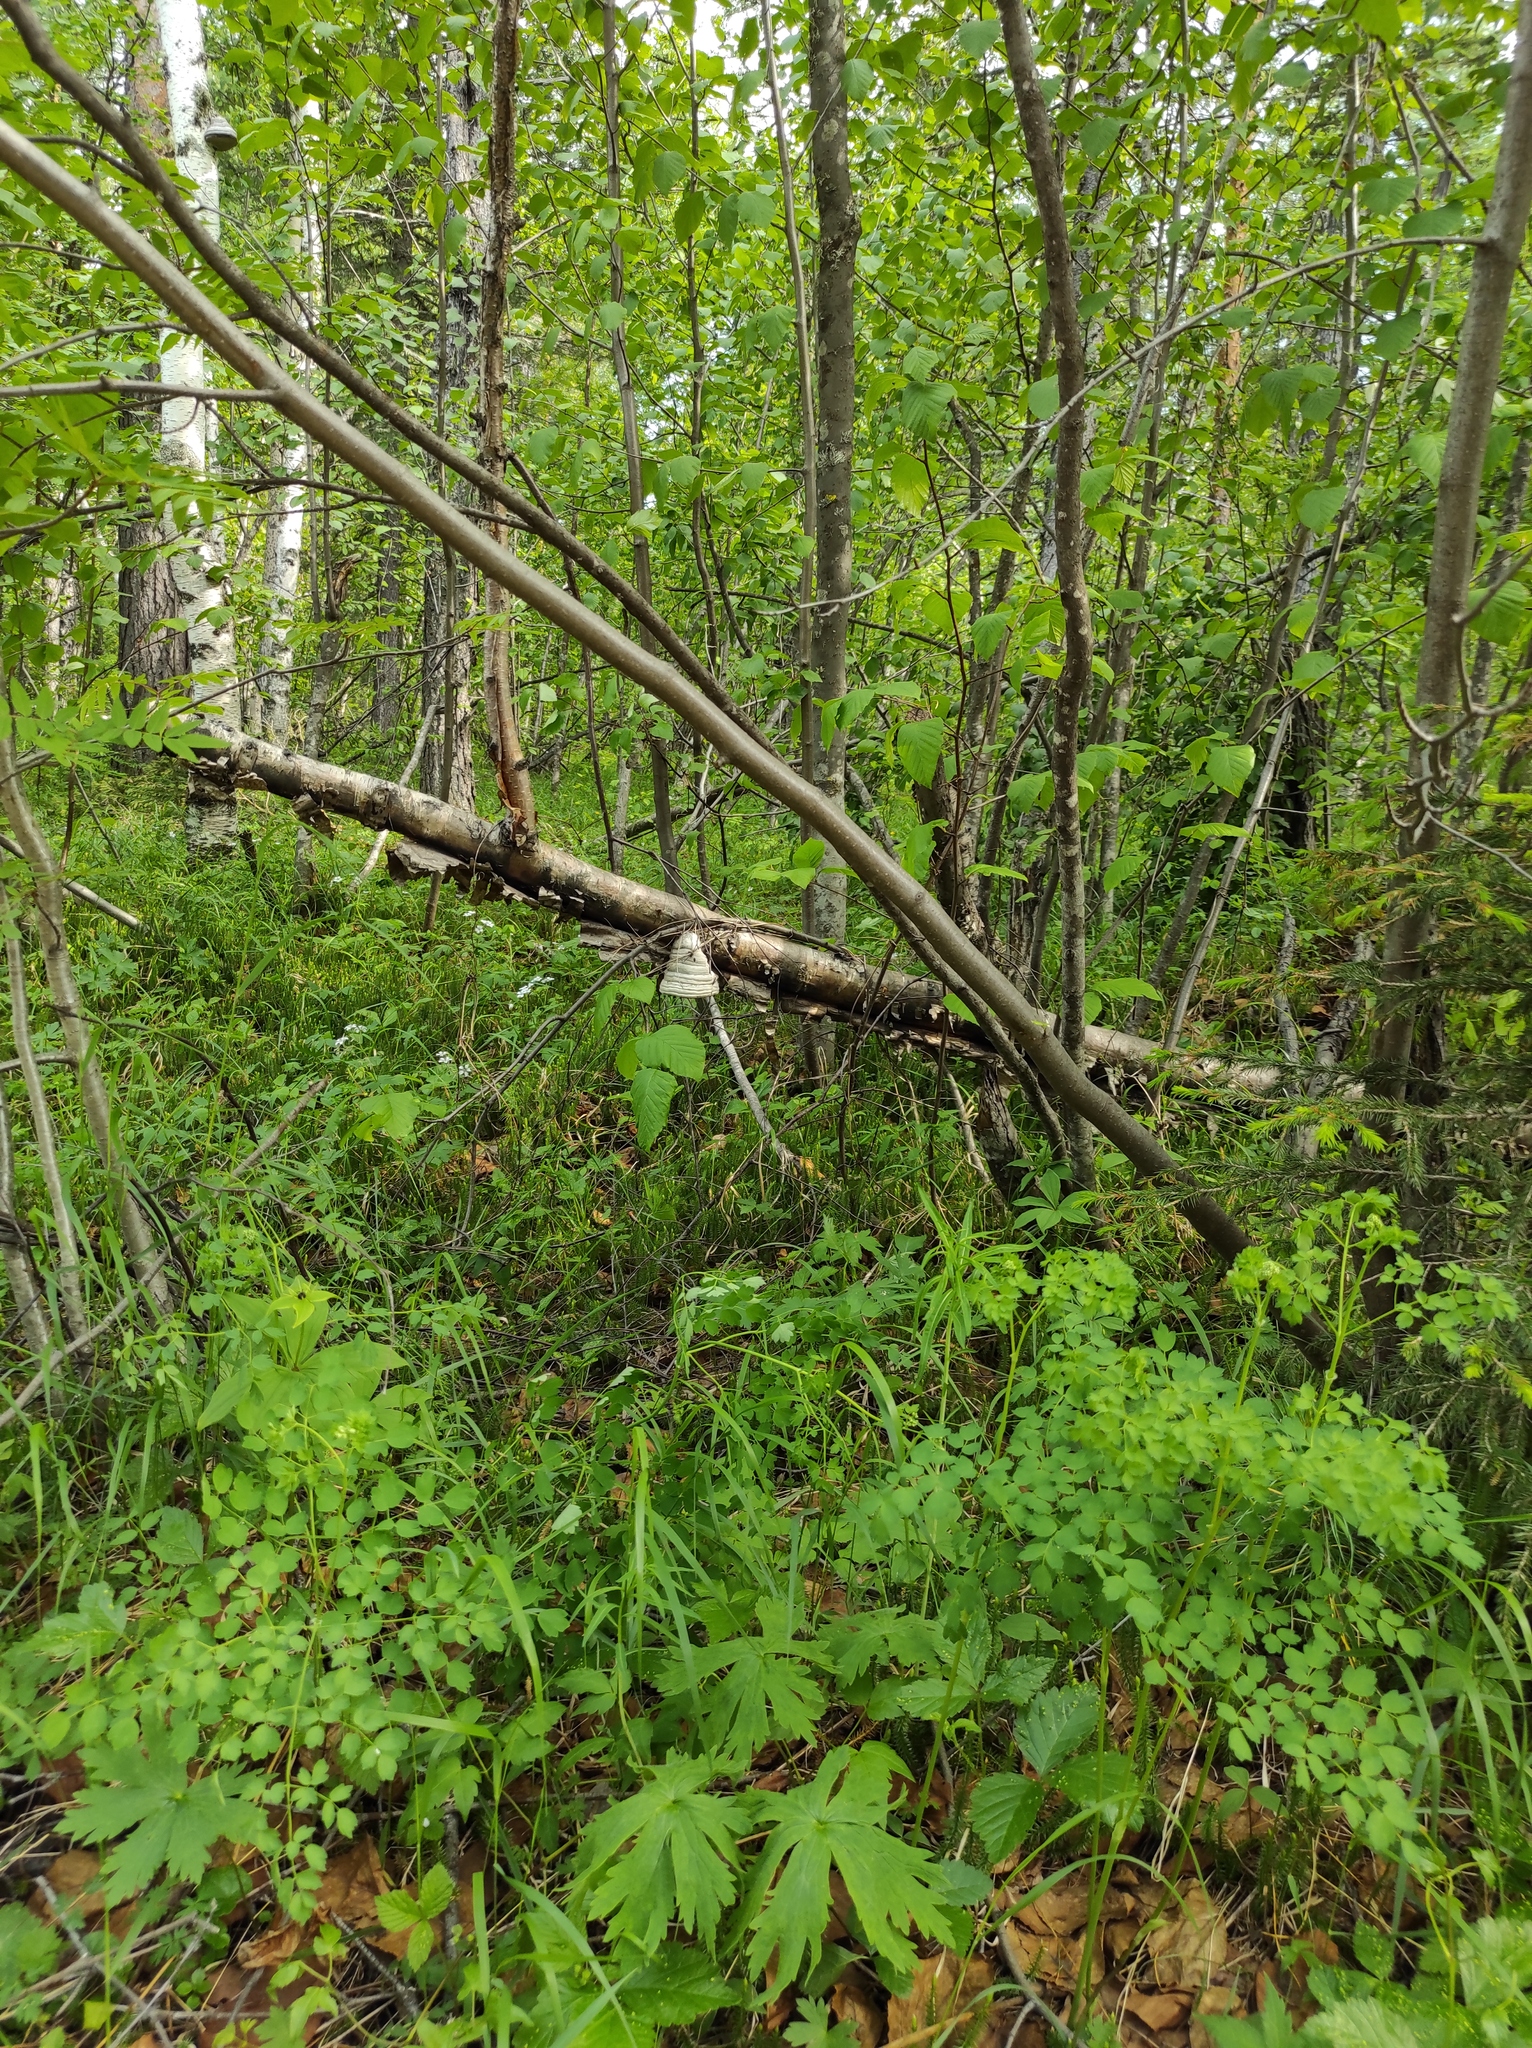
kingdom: Fungi
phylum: Basidiomycota
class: Agaricomycetes
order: Polyporales
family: Polyporaceae
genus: Fomes
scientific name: Fomes fomentarius
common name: Hoof fungus
